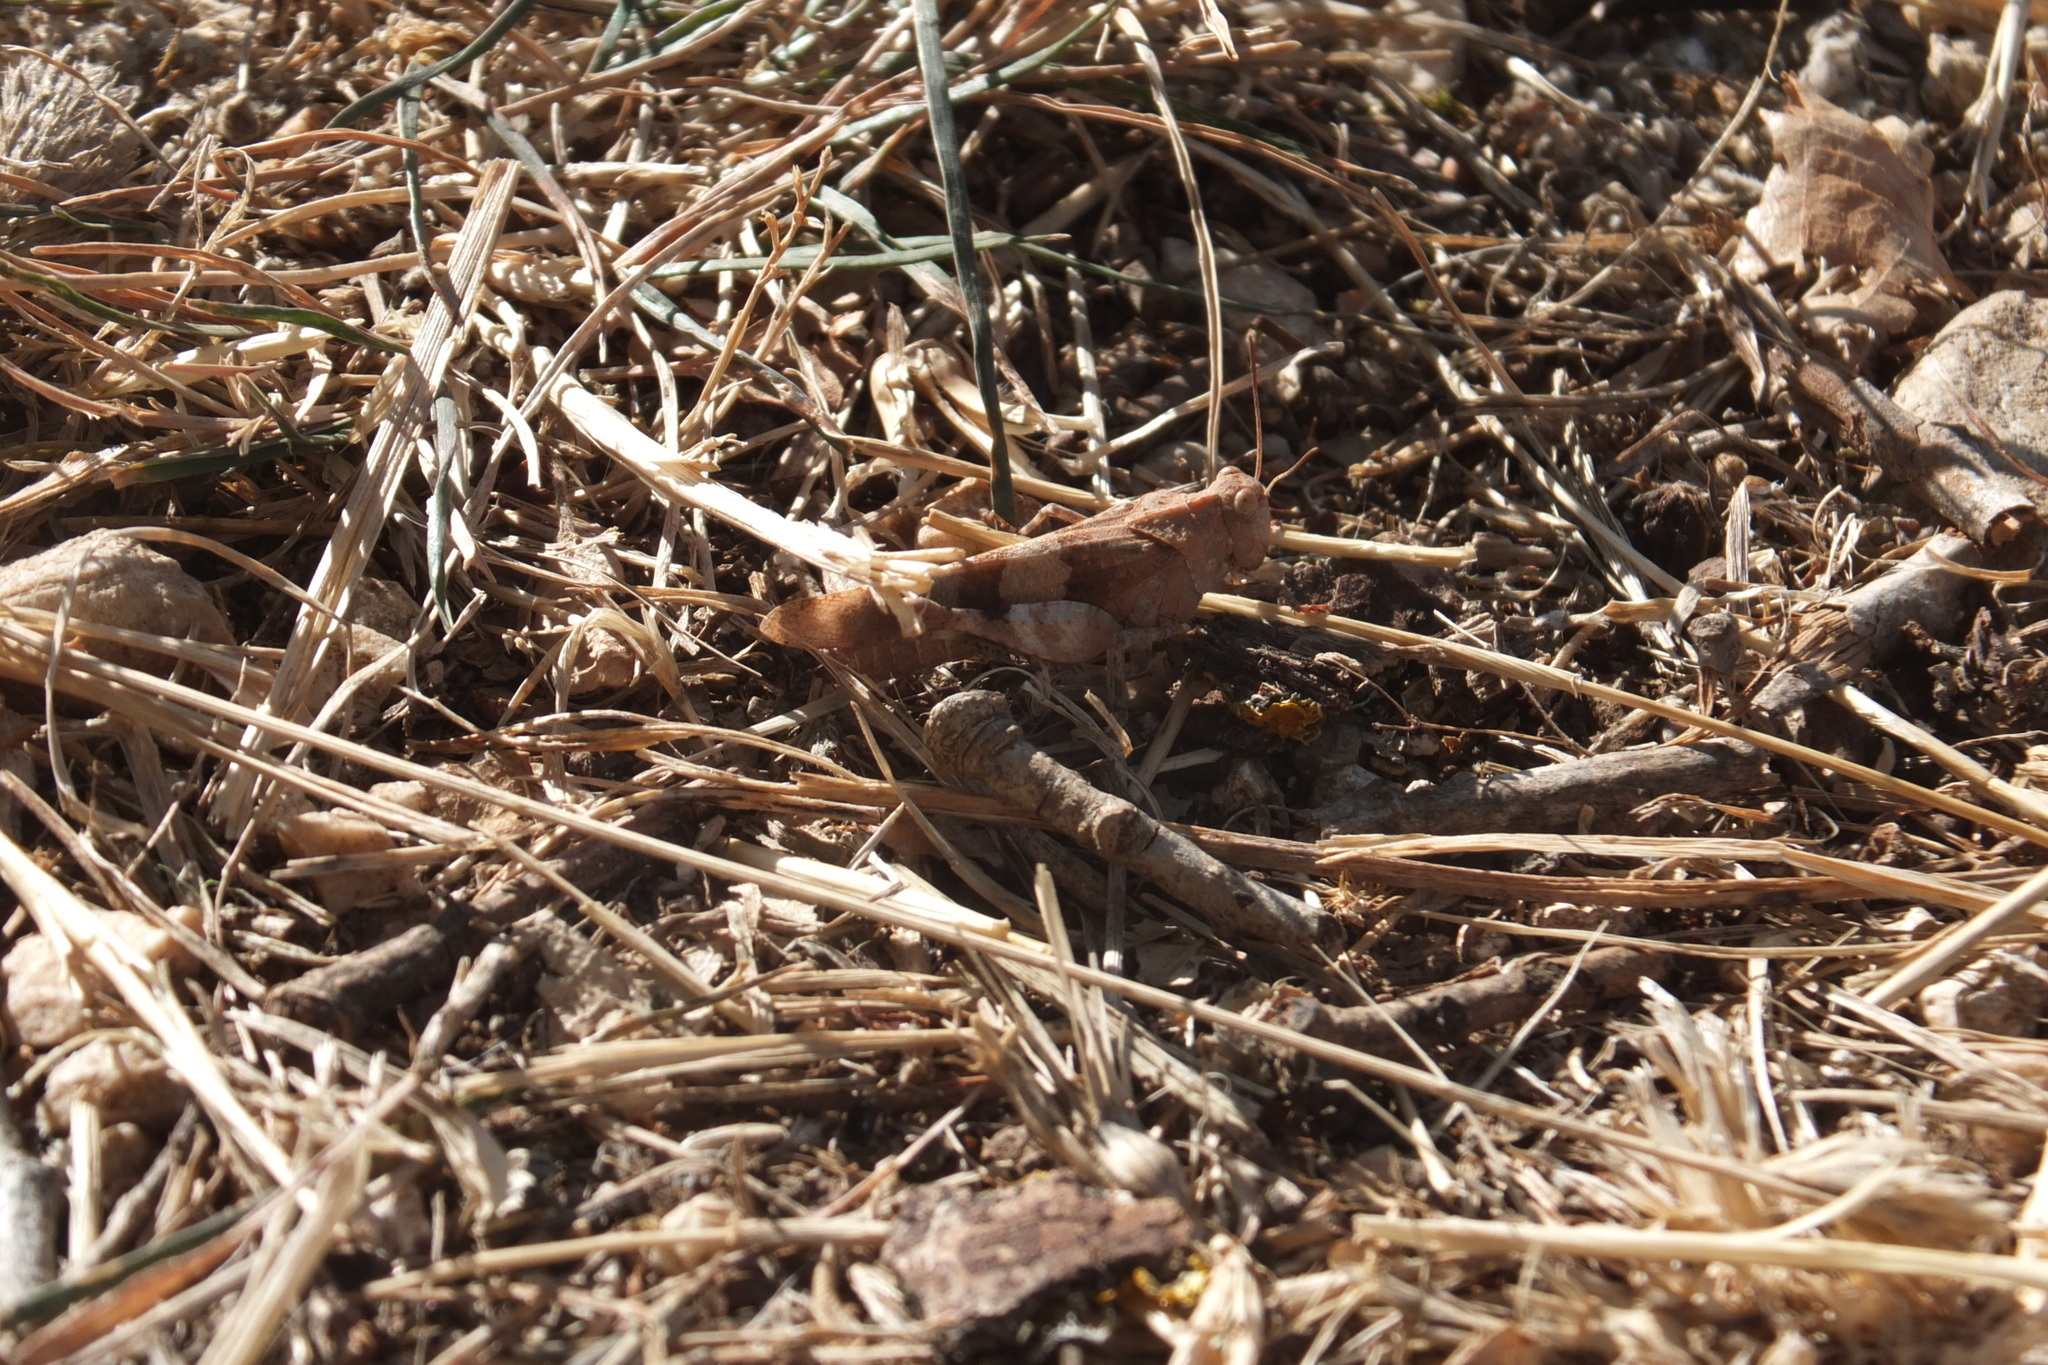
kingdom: Animalia
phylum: Arthropoda
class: Insecta
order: Orthoptera
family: Acrididae
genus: Oedipoda
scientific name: Oedipoda caerulescens
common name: Blue-winged grasshopper
